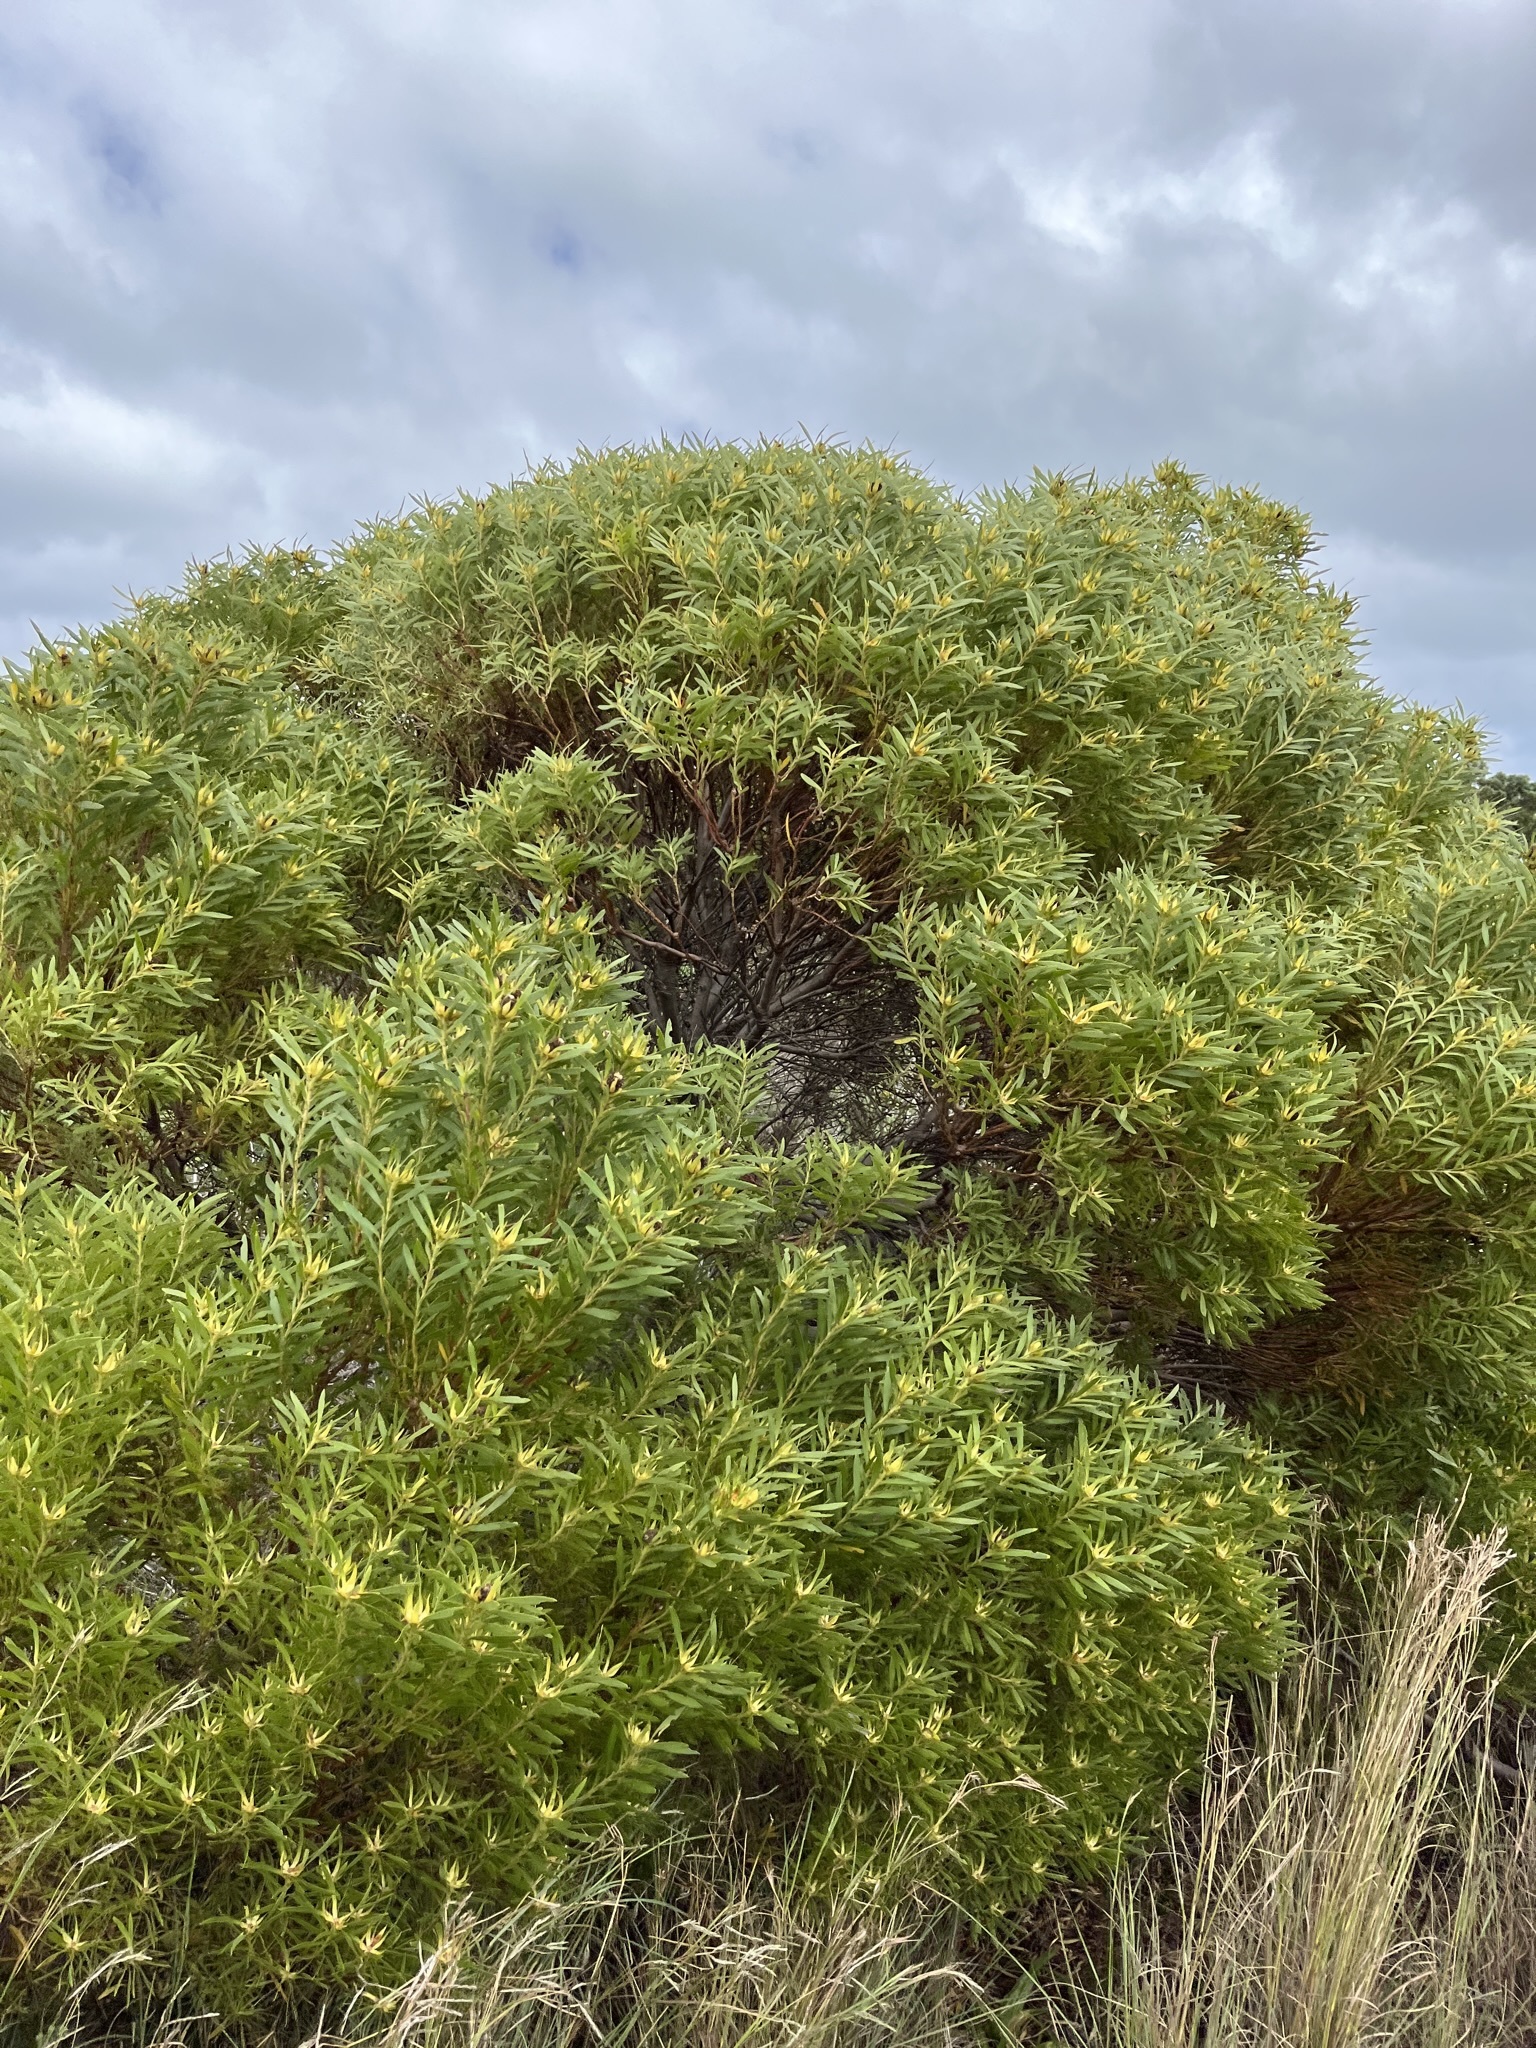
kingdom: Plantae
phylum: Tracheophyta
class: Magnoliopsida
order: Proteales
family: Proteaceae
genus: Leucadendron
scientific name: Leucadendron coniferum
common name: Dune conebush
